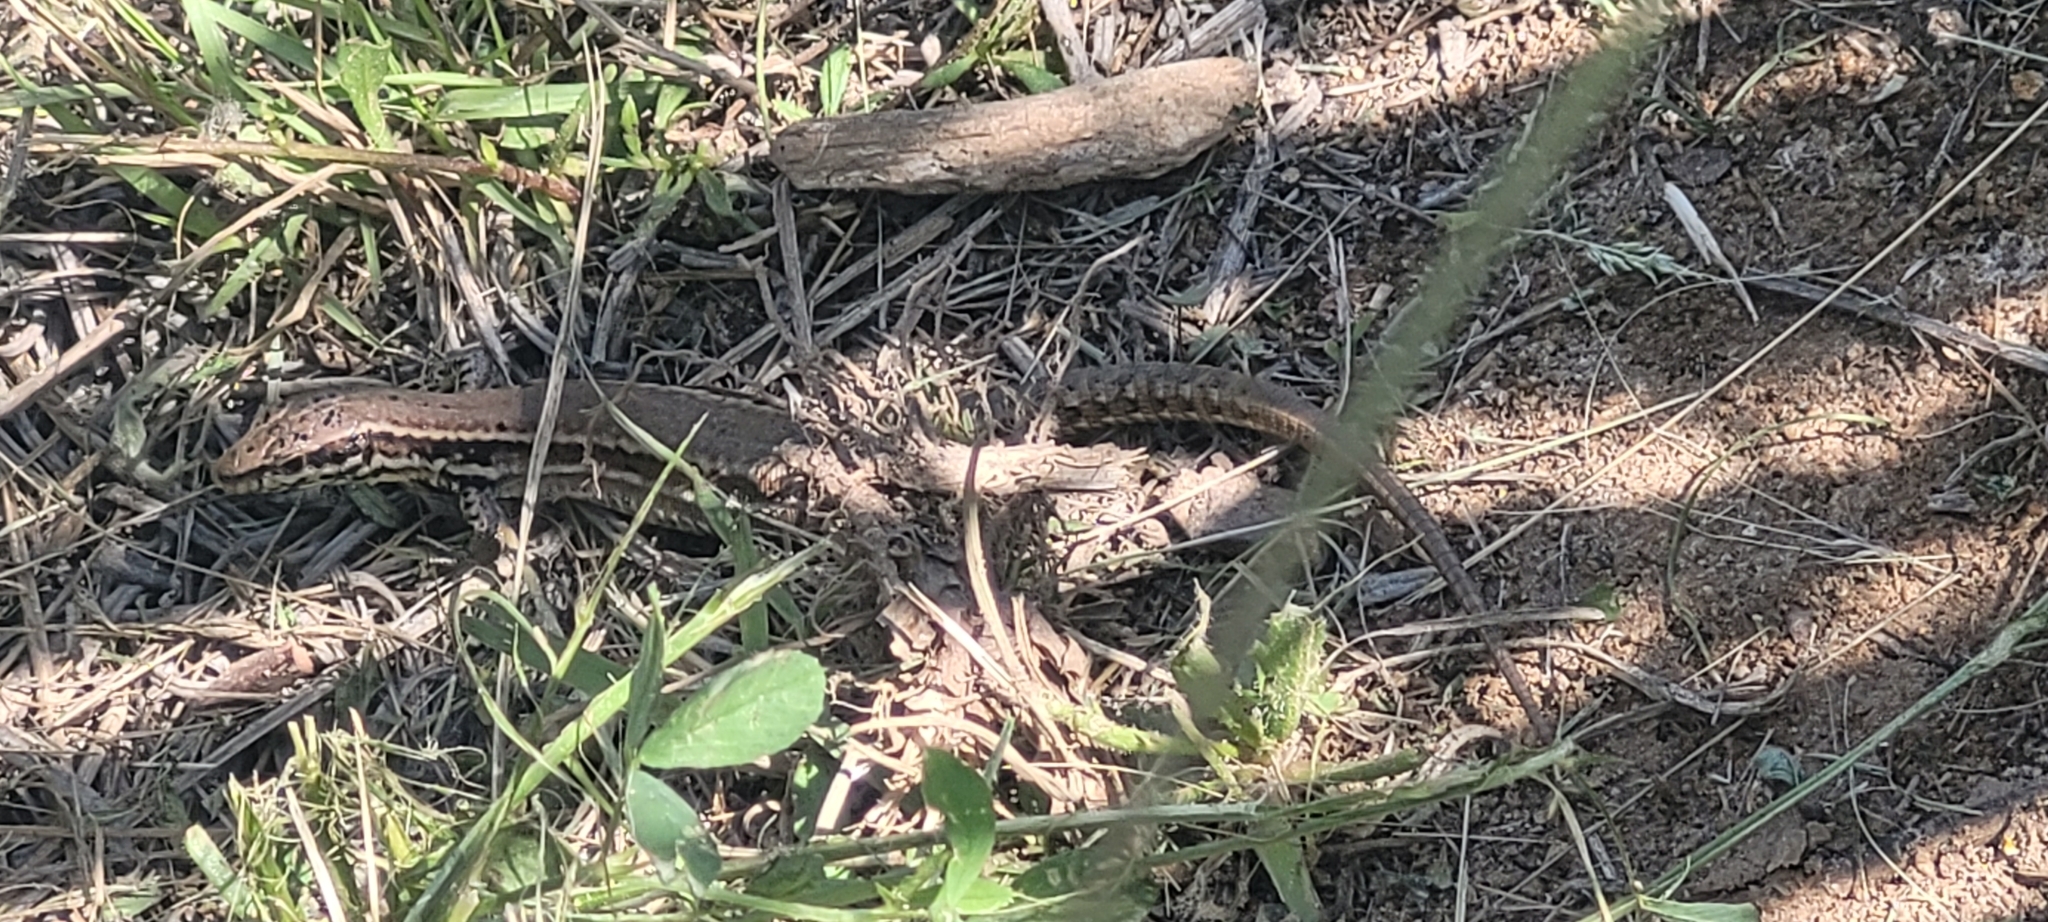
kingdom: Animalia
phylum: Chordata
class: Squamata
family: Lacertidae
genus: Podarcis
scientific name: Podarcis muralis
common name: Common wall lizard
